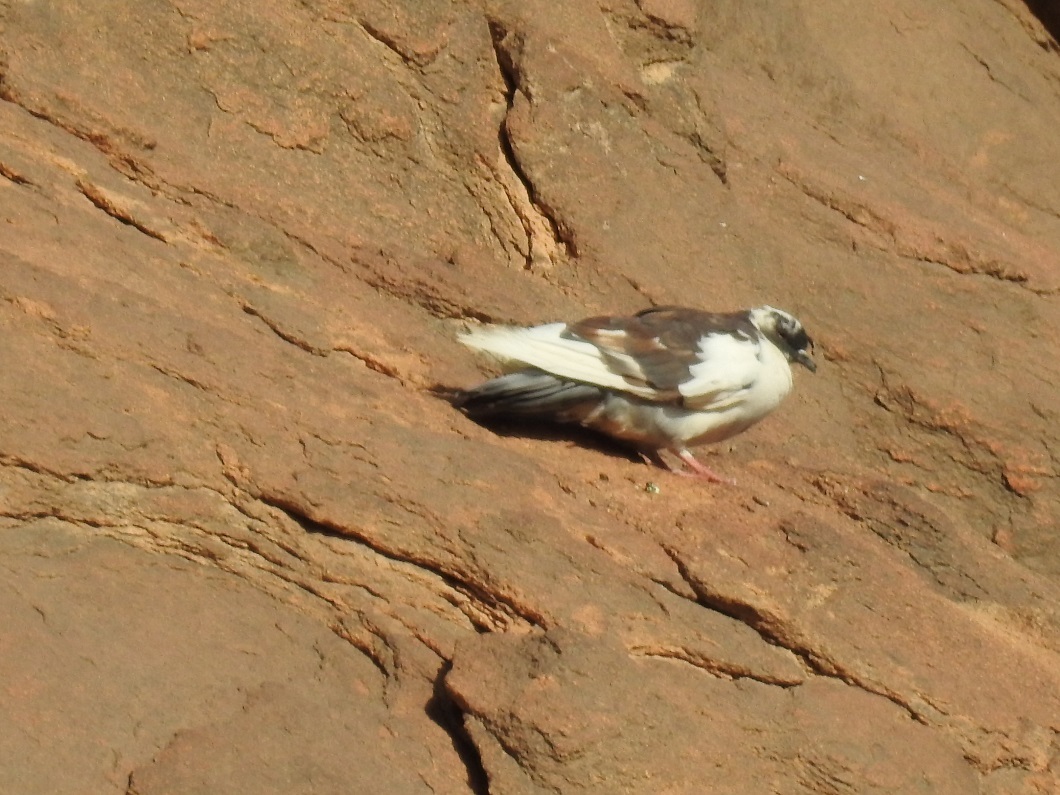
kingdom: Animalia
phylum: Chordata
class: Aves
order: Columbiformes
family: Columbidae
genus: Columba
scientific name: Columba livia
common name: Rock pigeon
